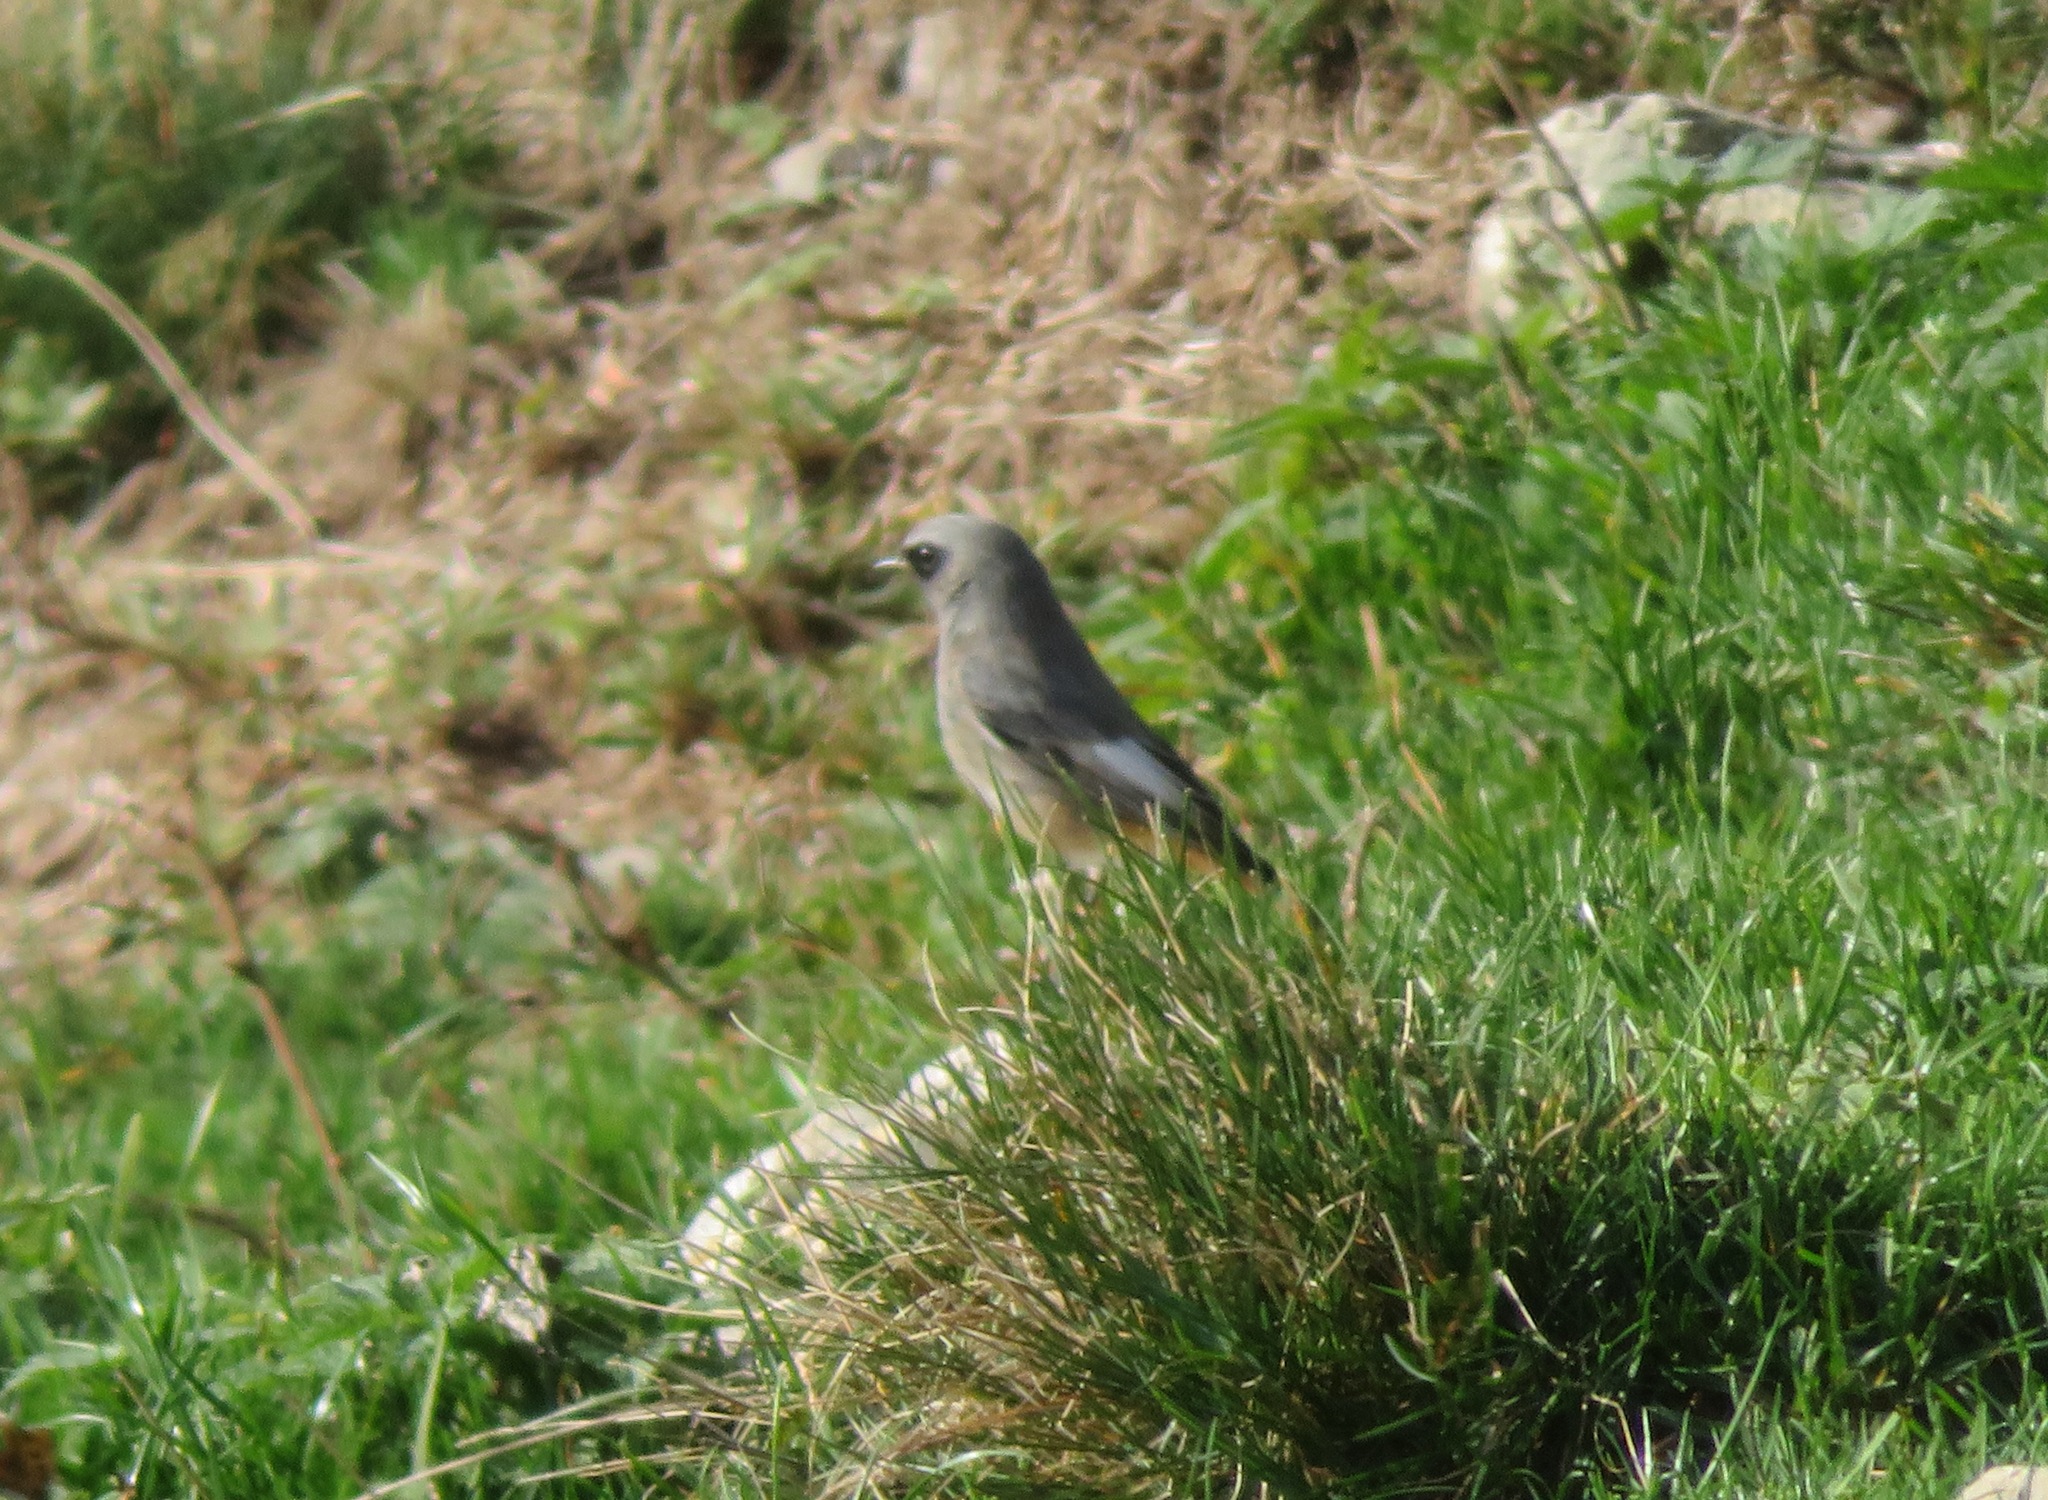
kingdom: Animalia
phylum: Chordata
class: Aves
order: Passeriformes
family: Muscicapidae
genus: Phoenicurus
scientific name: Phoenicurus ochruros
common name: Black redstart
